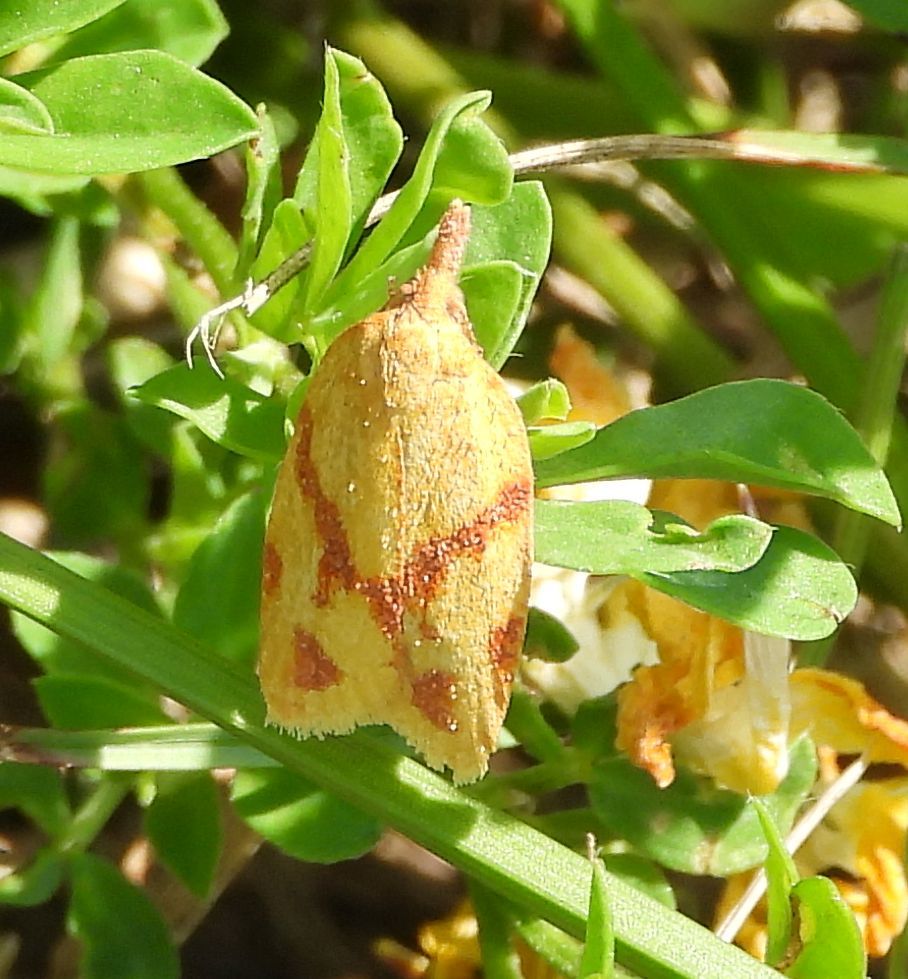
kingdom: Animalia
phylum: Arthropoda
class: Insecta
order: Lepidoptera
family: Tortricidae
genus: Sparganothis
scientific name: Sparganothis unifasciana
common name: One-lined sparganothis moth
